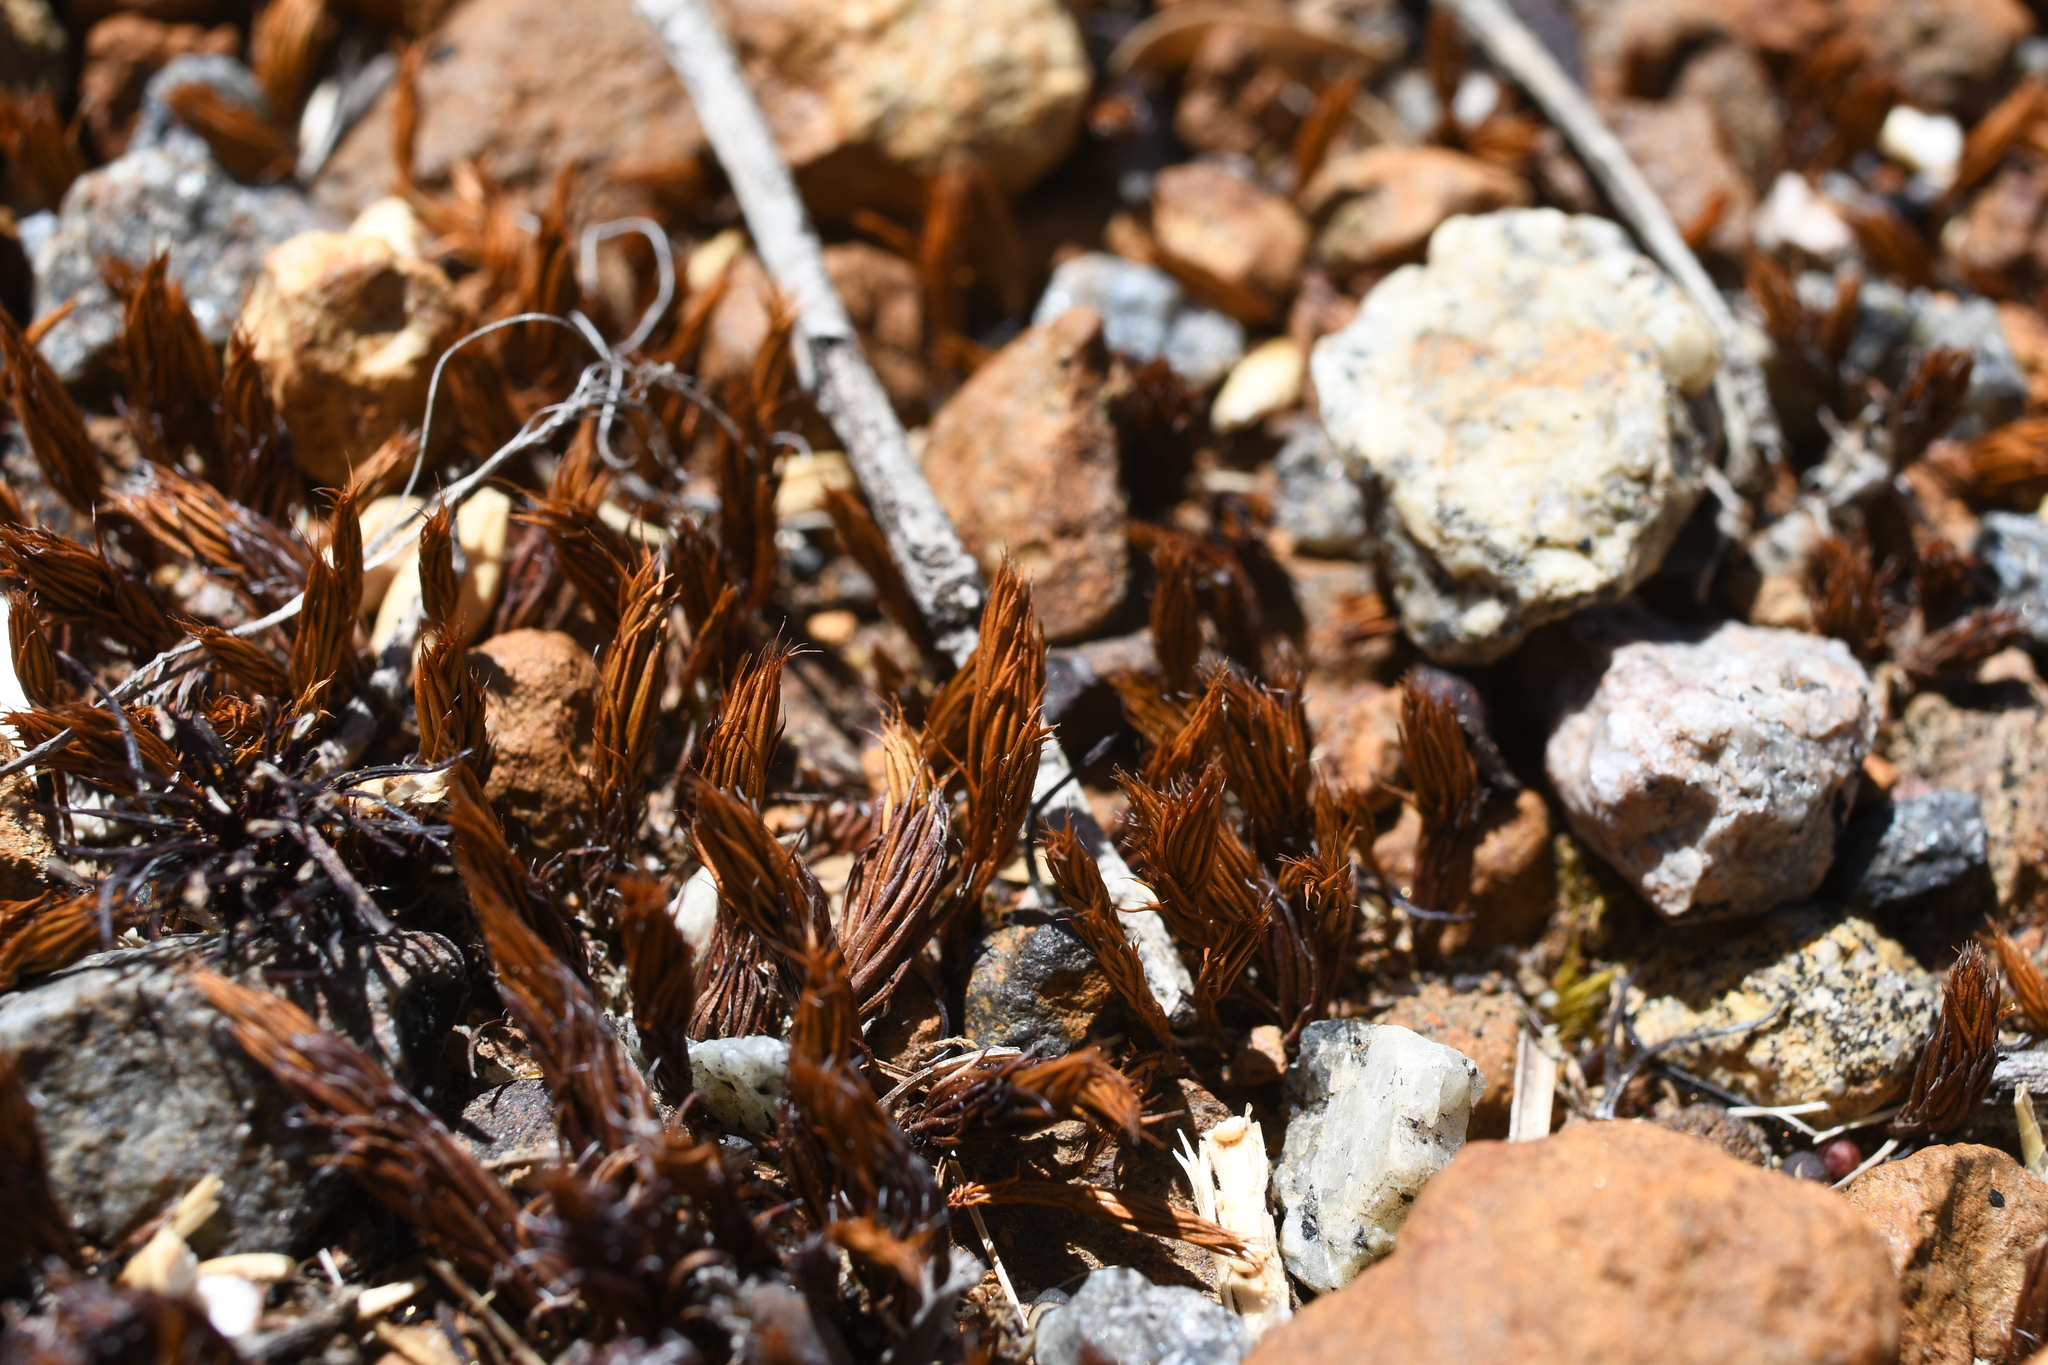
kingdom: Plantae
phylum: Bryophyta
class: Polytrichopsida
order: Polytrichales
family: Polytrichaceae
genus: Polytrichum
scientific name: Polytrichum juniperinum
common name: Juniper haircap moss
